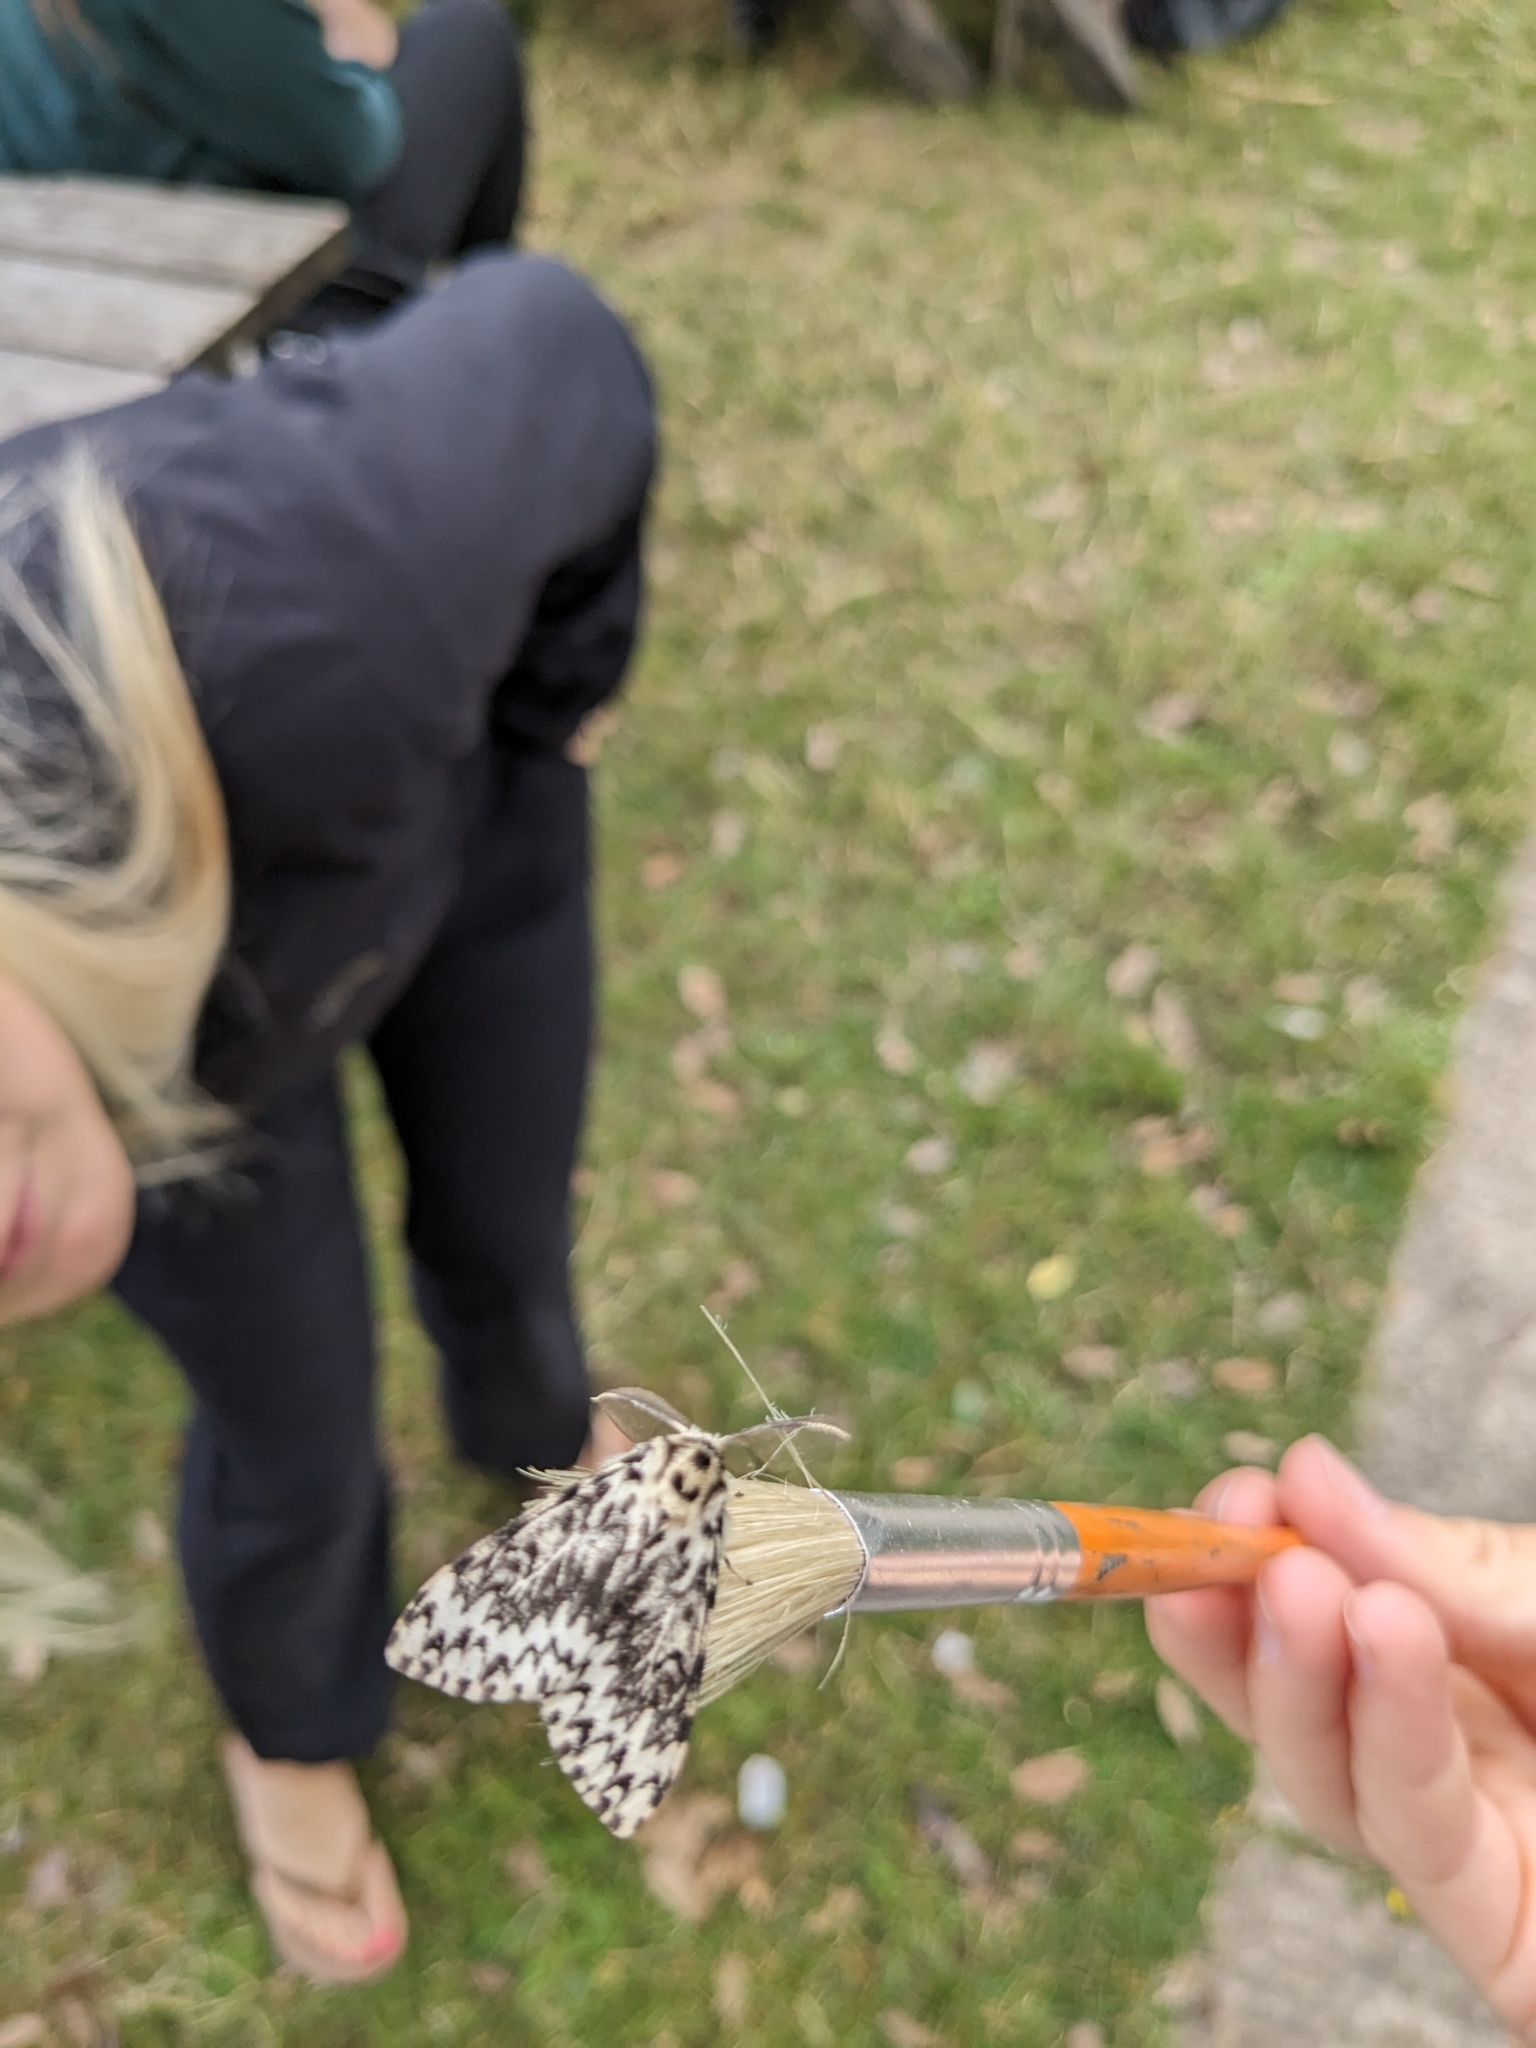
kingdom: Animalia
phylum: Arthropoda
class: Insecta
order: Lepidoptera
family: Erebidae
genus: Lymantria
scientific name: Lymantria monacha
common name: Black arches
